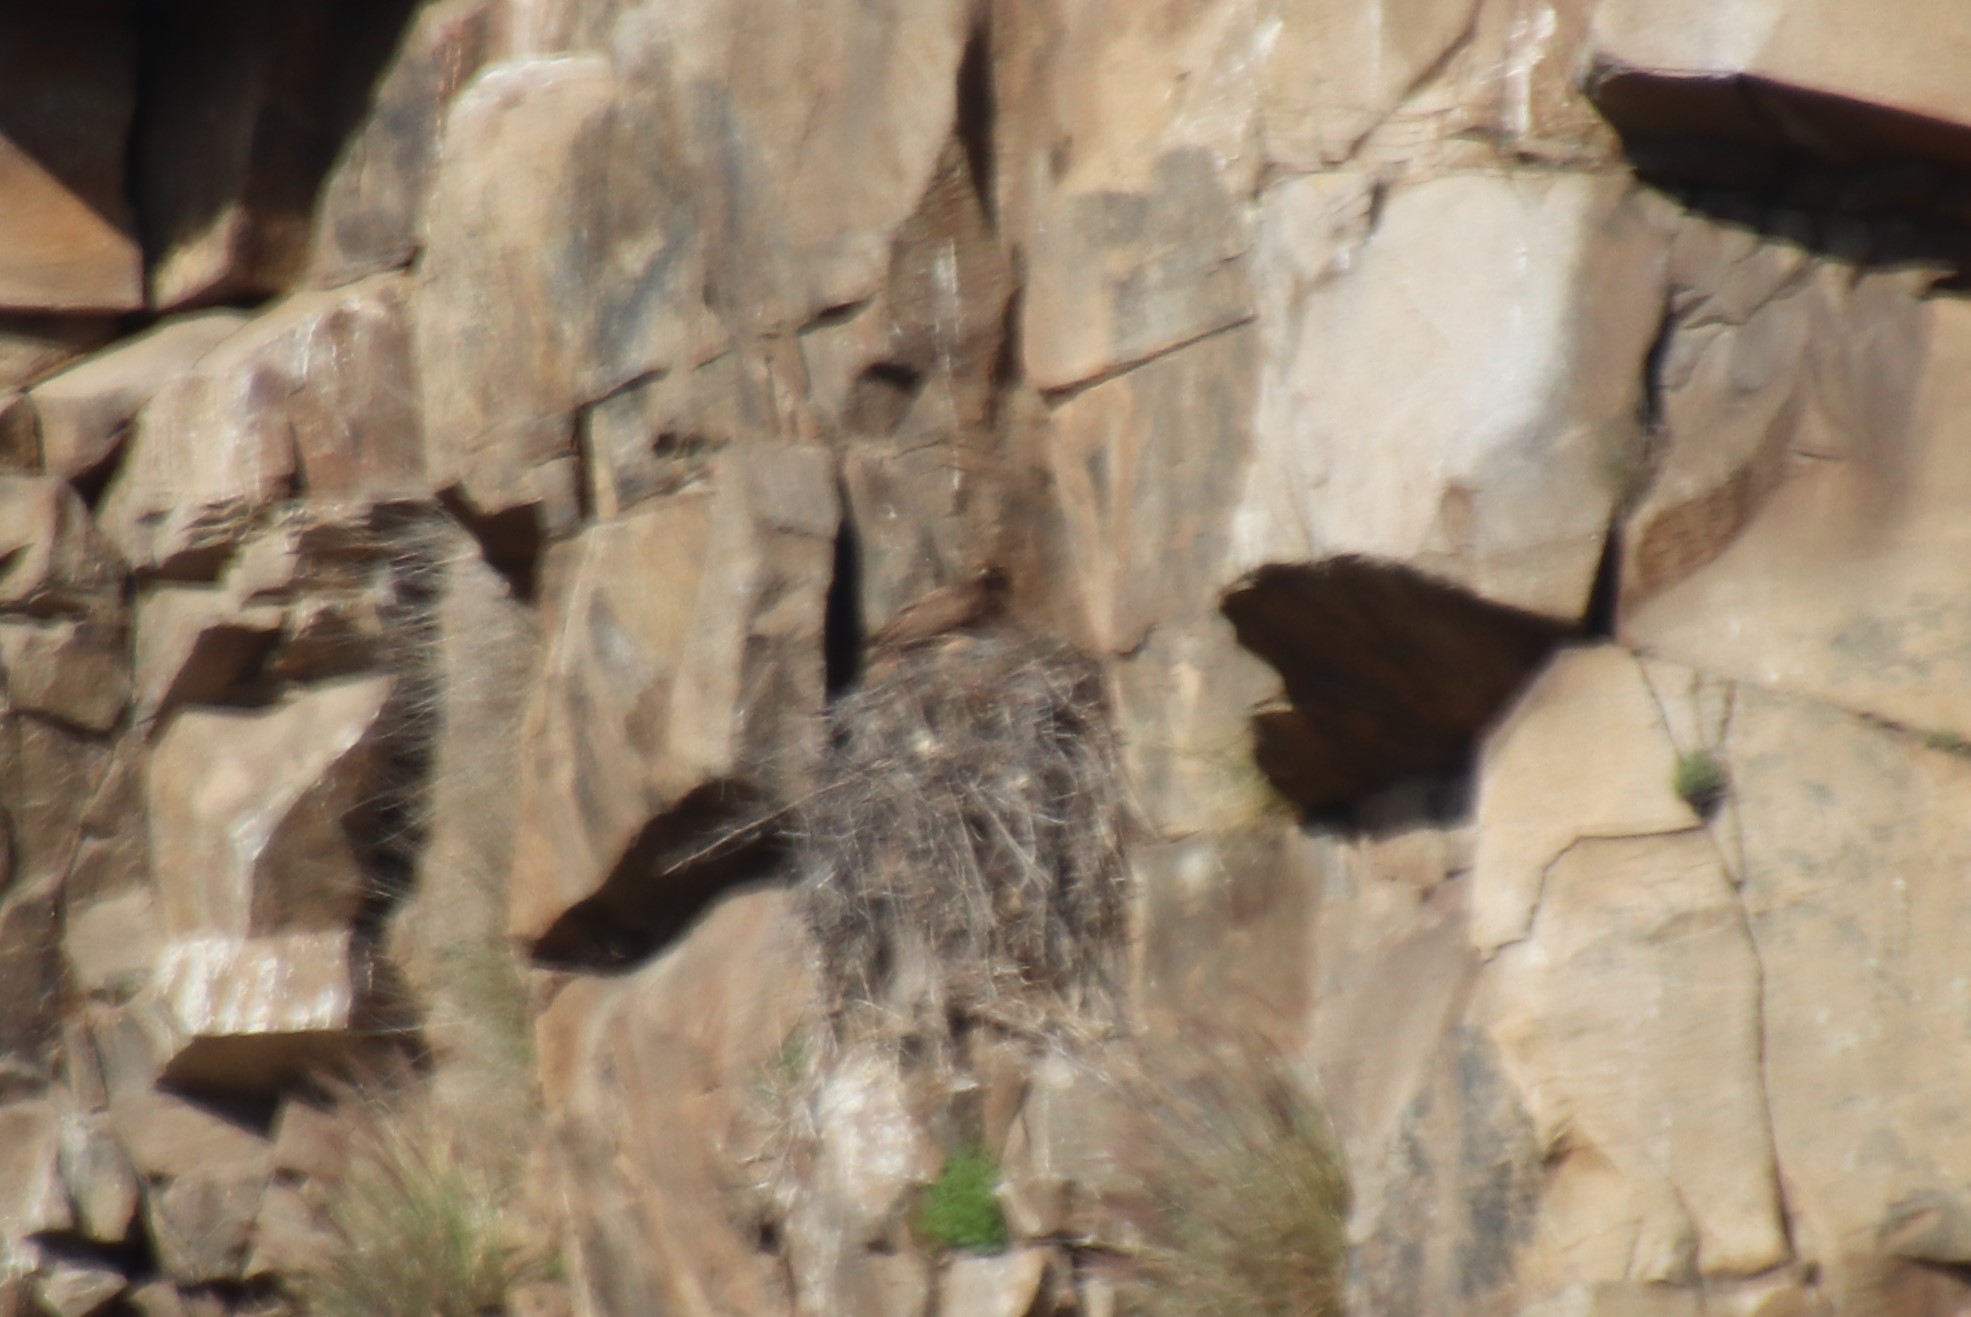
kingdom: Animalia
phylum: Chordata
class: Aves
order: Accipitriformes
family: Accipitridae
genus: Buteo
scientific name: Buteo jamaicensis
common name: Red-tailed hawk
